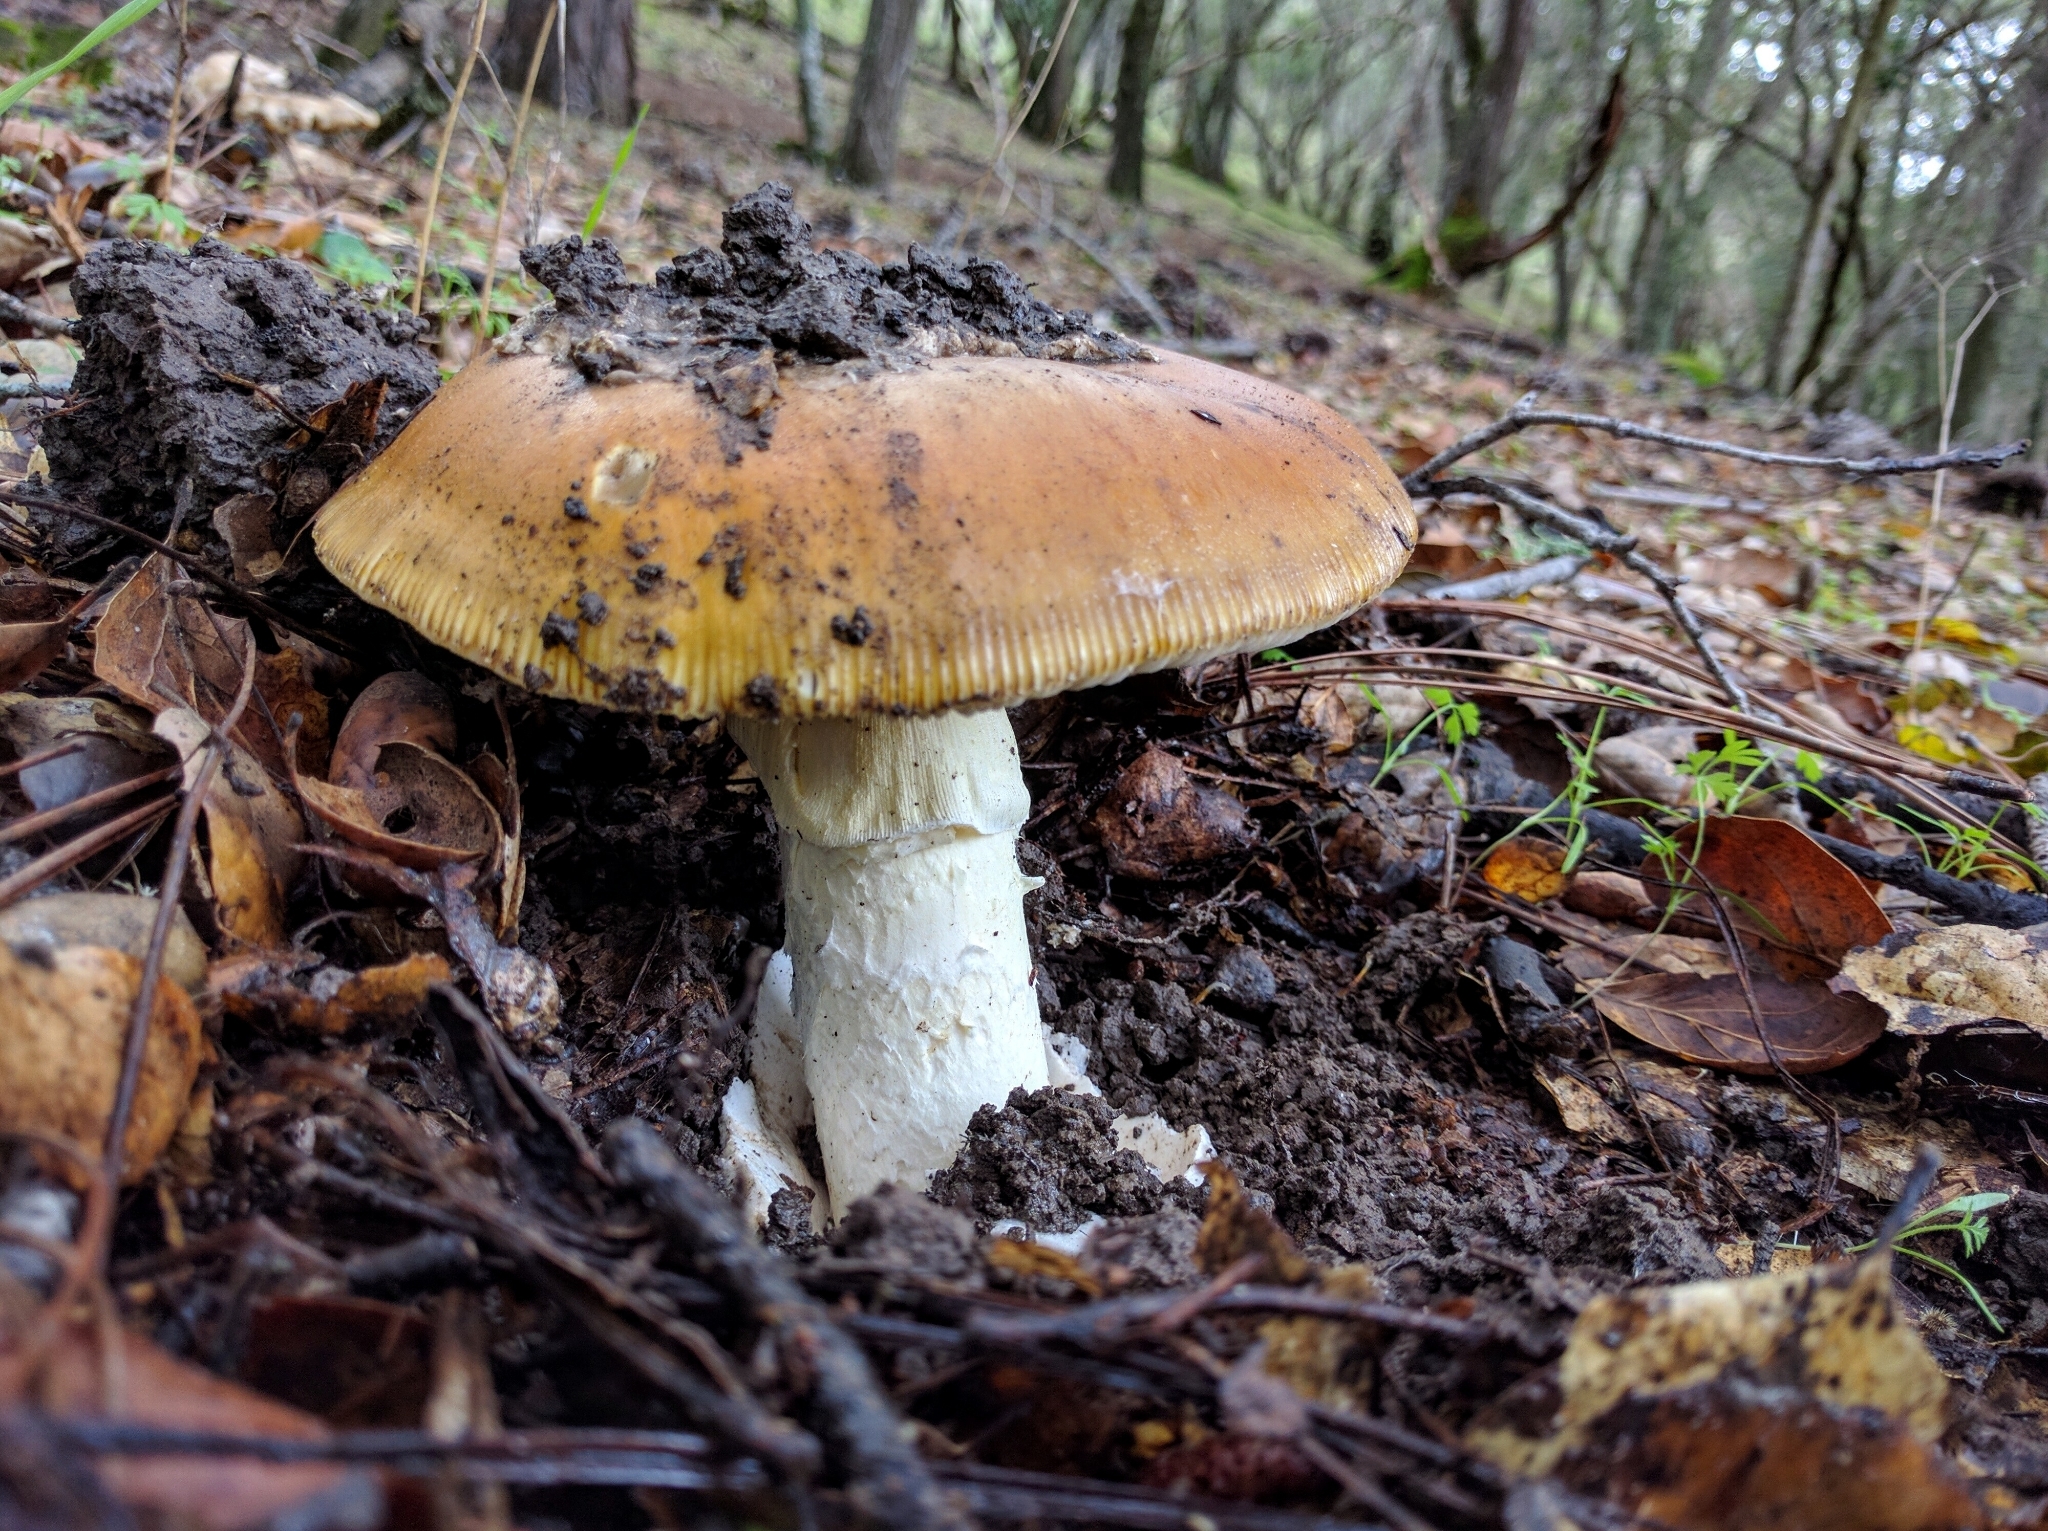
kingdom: Fungi
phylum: Basidiomycota
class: Agaricomycetes
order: Agaricales
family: Amanitaceae
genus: Amanita
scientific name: Amanita calyptroderma
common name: Coccora
